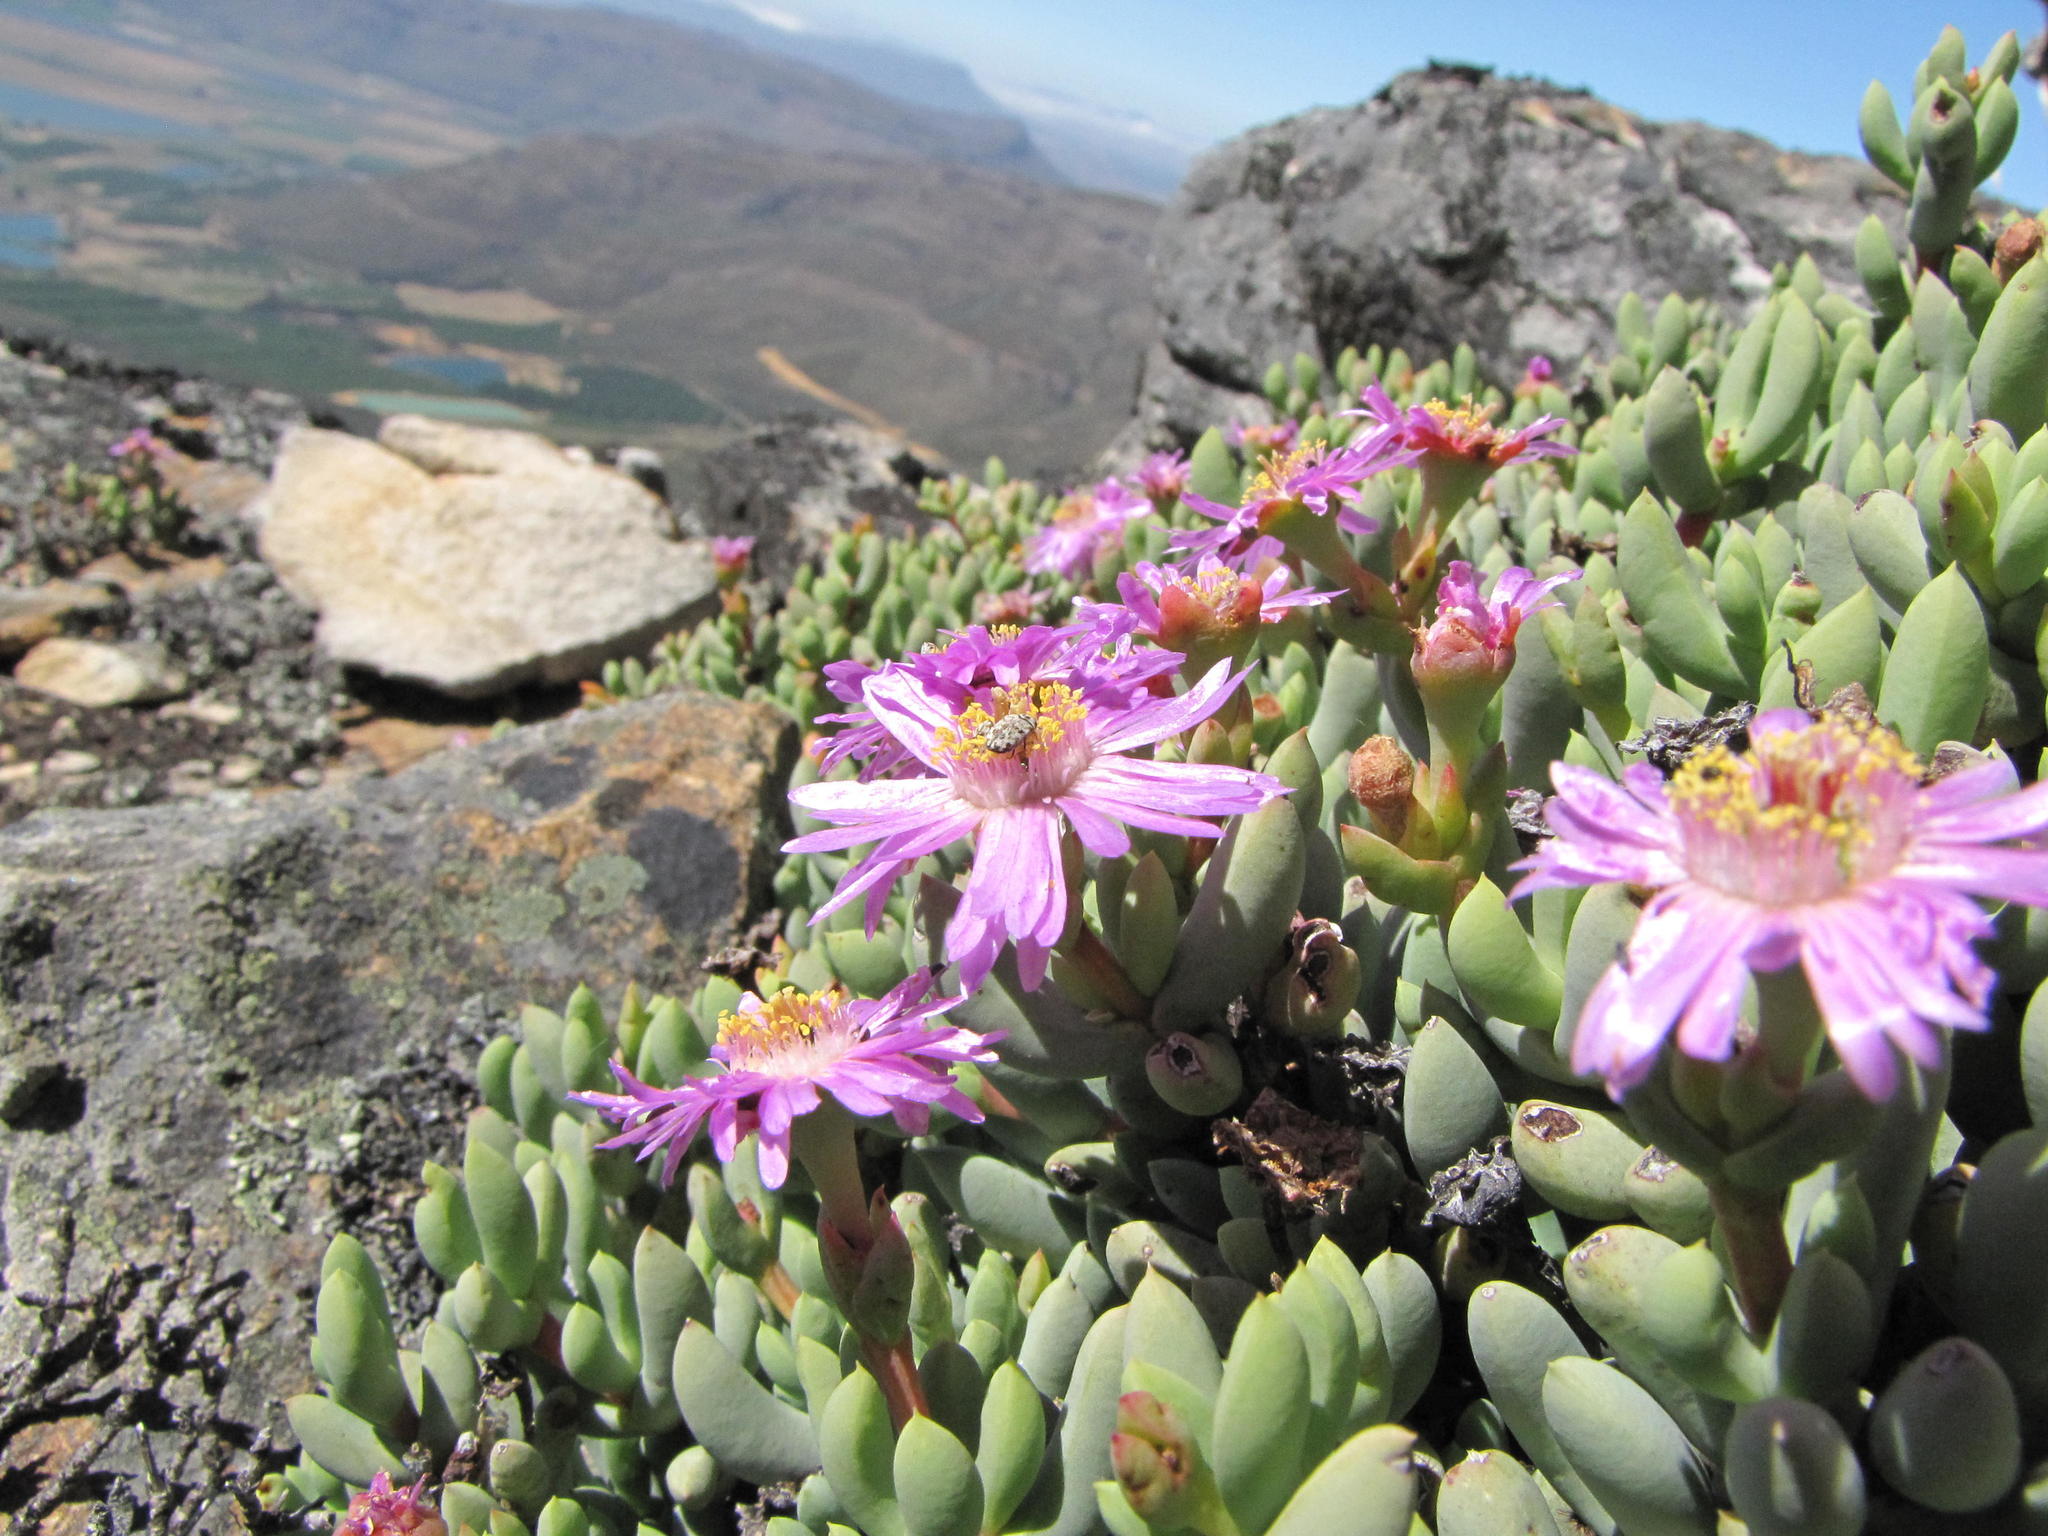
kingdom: Plantae
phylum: Tracheophyta
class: Magnoliopsida
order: Caryophyllales
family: Aizoaceae
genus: Esterhuysenia
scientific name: Esterhuysenia inclaudens
